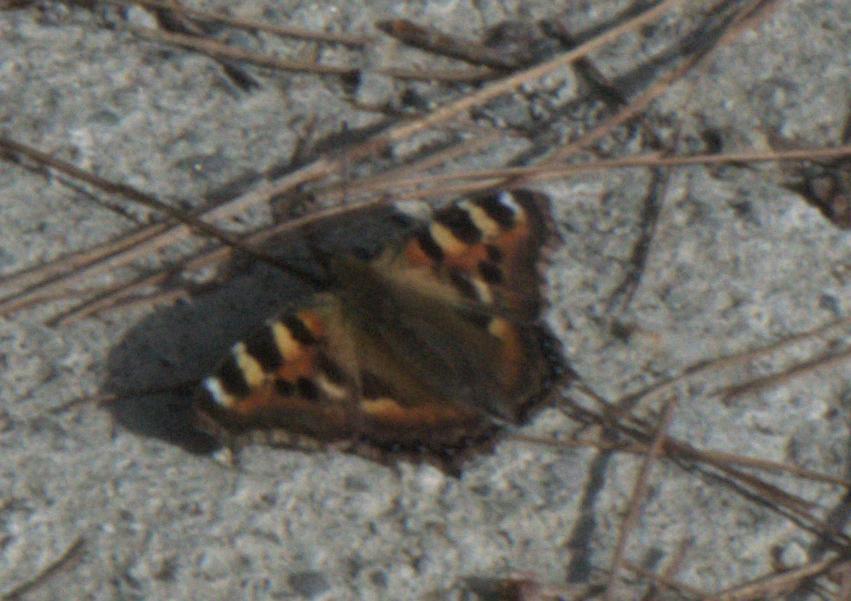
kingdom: Animalia
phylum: Arthropoda
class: Insecta
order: Lepidoptera
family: Nymphalidae
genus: Aglais
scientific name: Aglais caschmirensis
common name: Indian tortoiseshell
